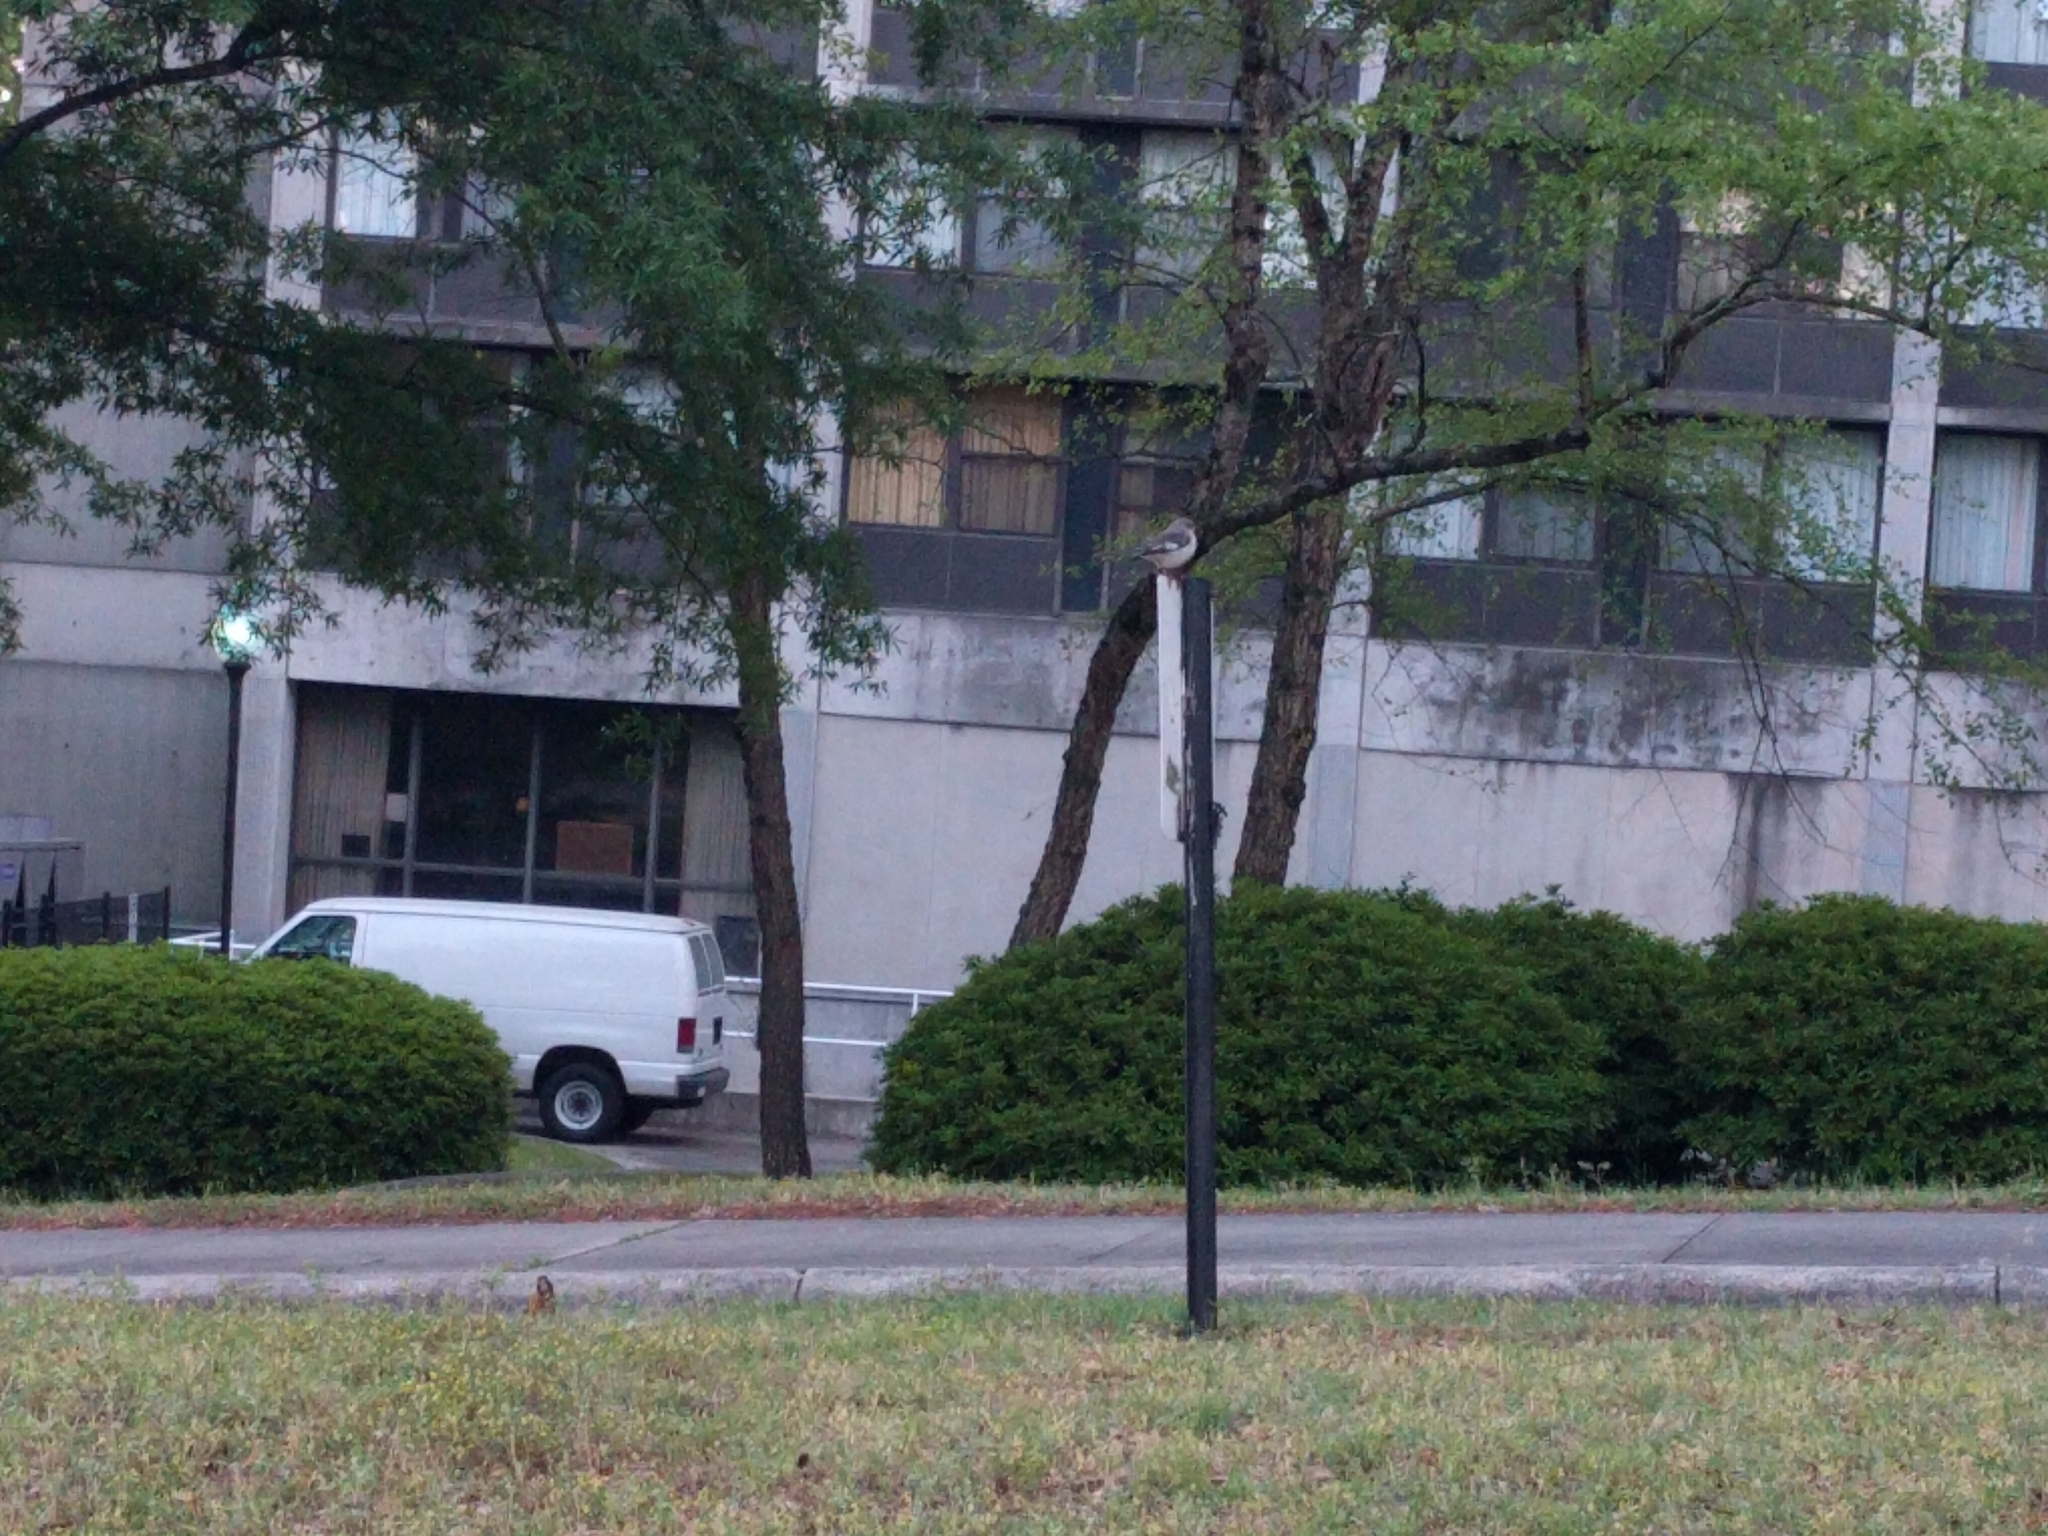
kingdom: Animalia
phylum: Chordata
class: Aves
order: Passeriformes
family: Mimidae
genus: Mimus
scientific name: Mimus polyglottos
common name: Northern mockingbird
